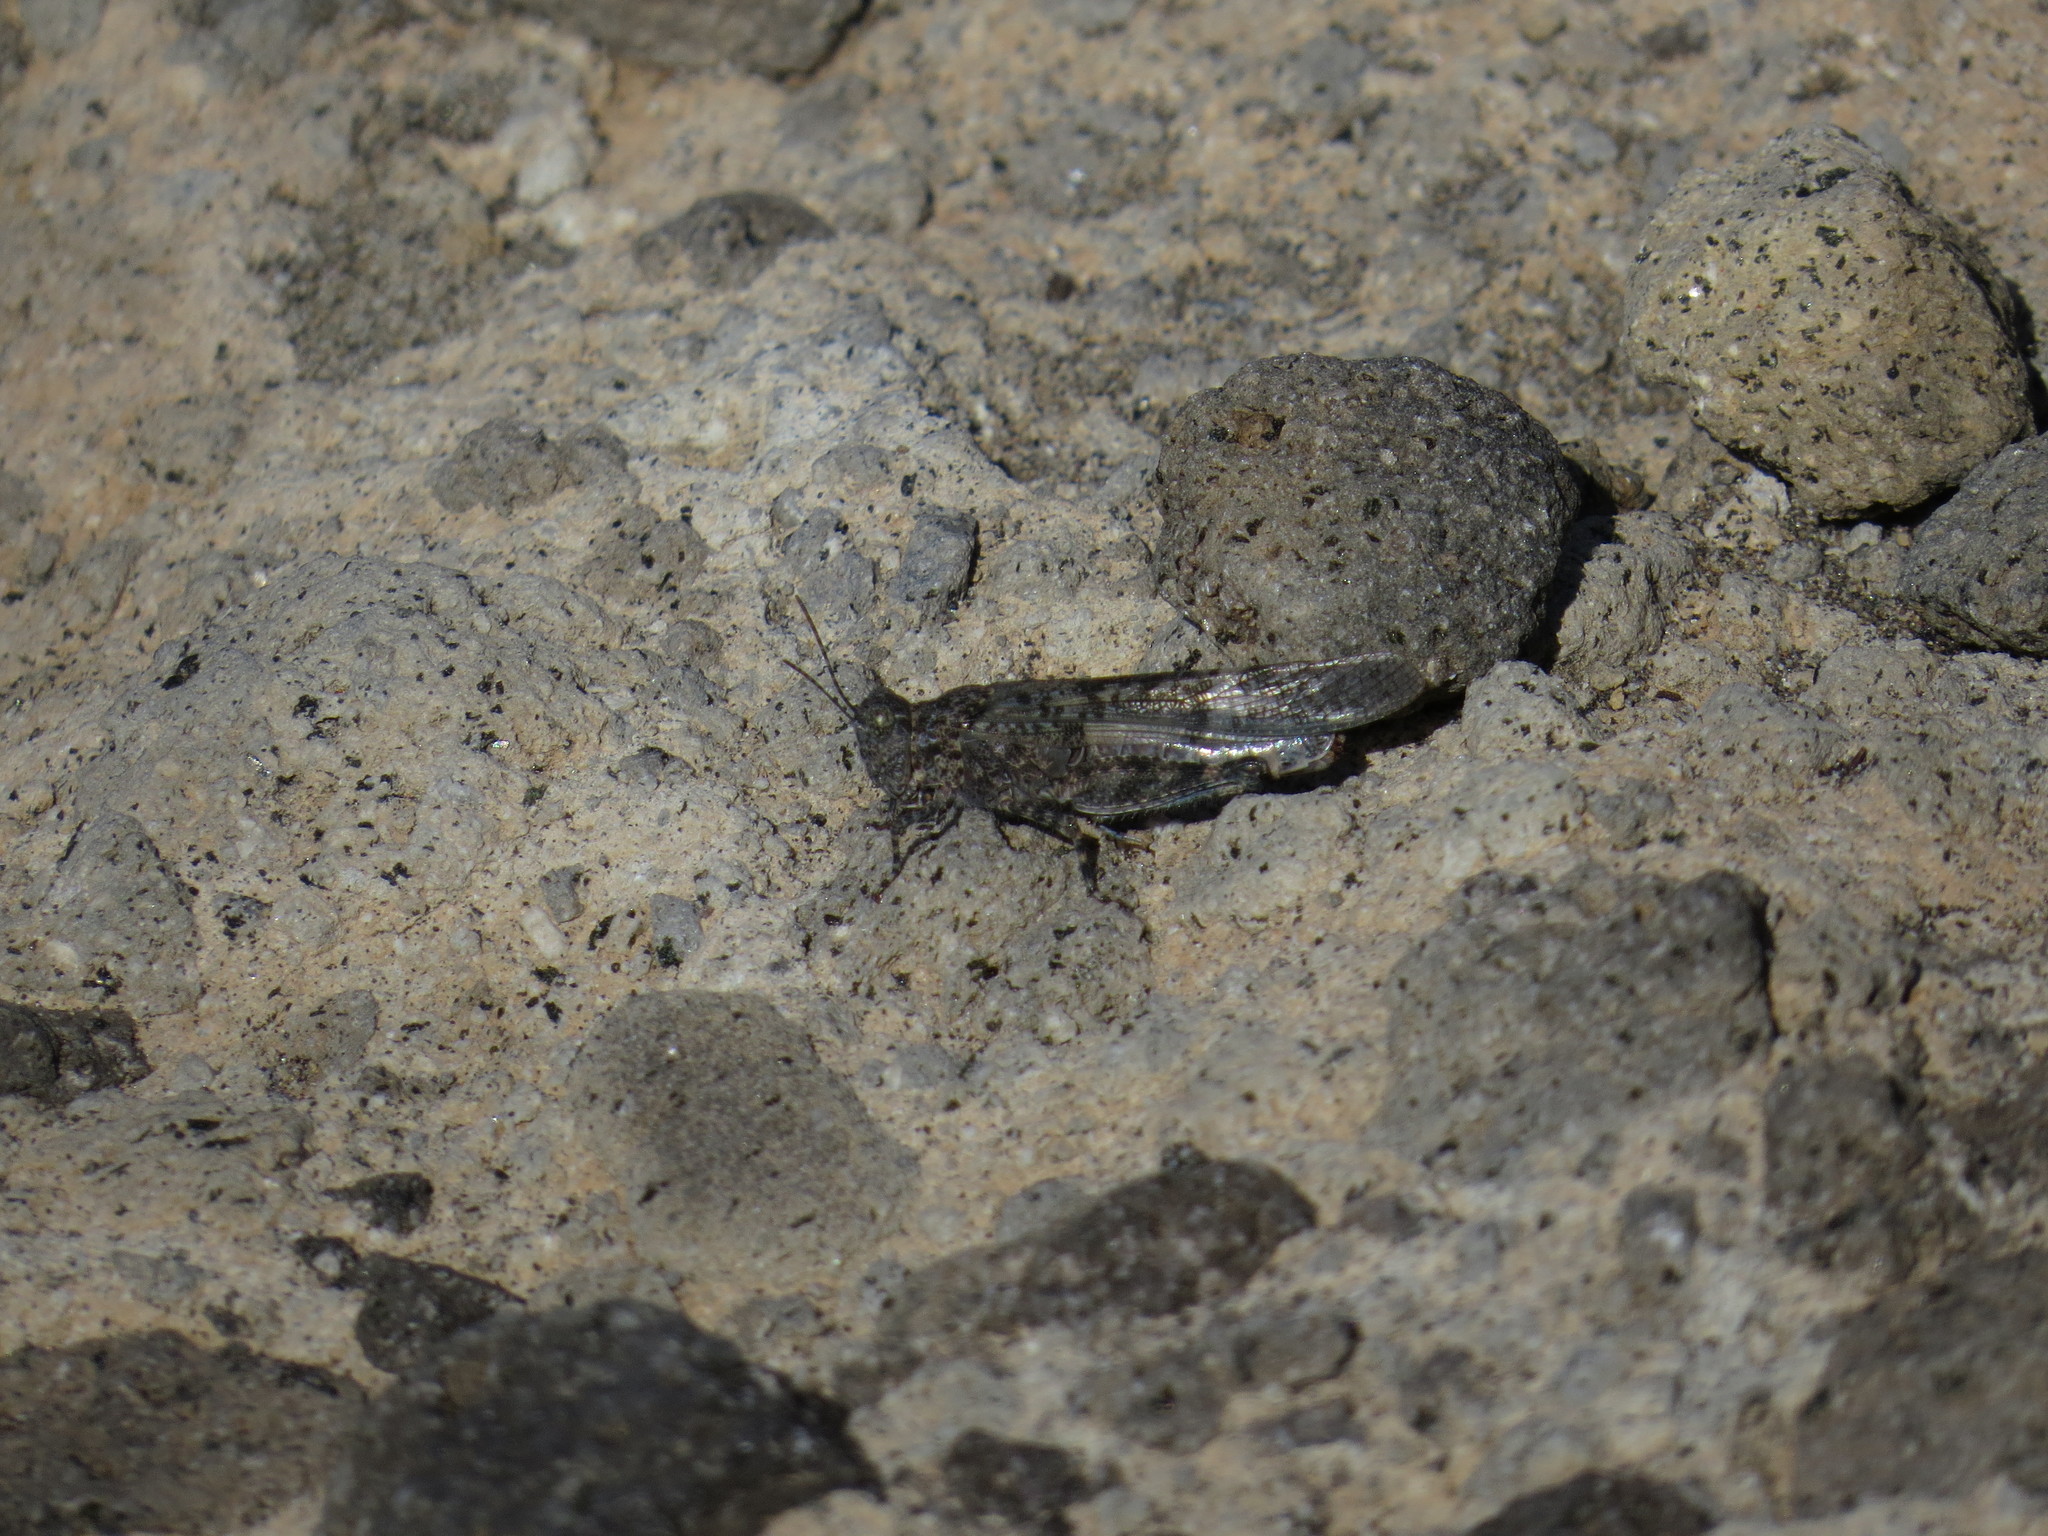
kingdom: Animalia
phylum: Arthropoda
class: Insecta
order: Orthoptera
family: Acrididae
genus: Sphingonotus
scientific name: Sphingonotus rubescens
